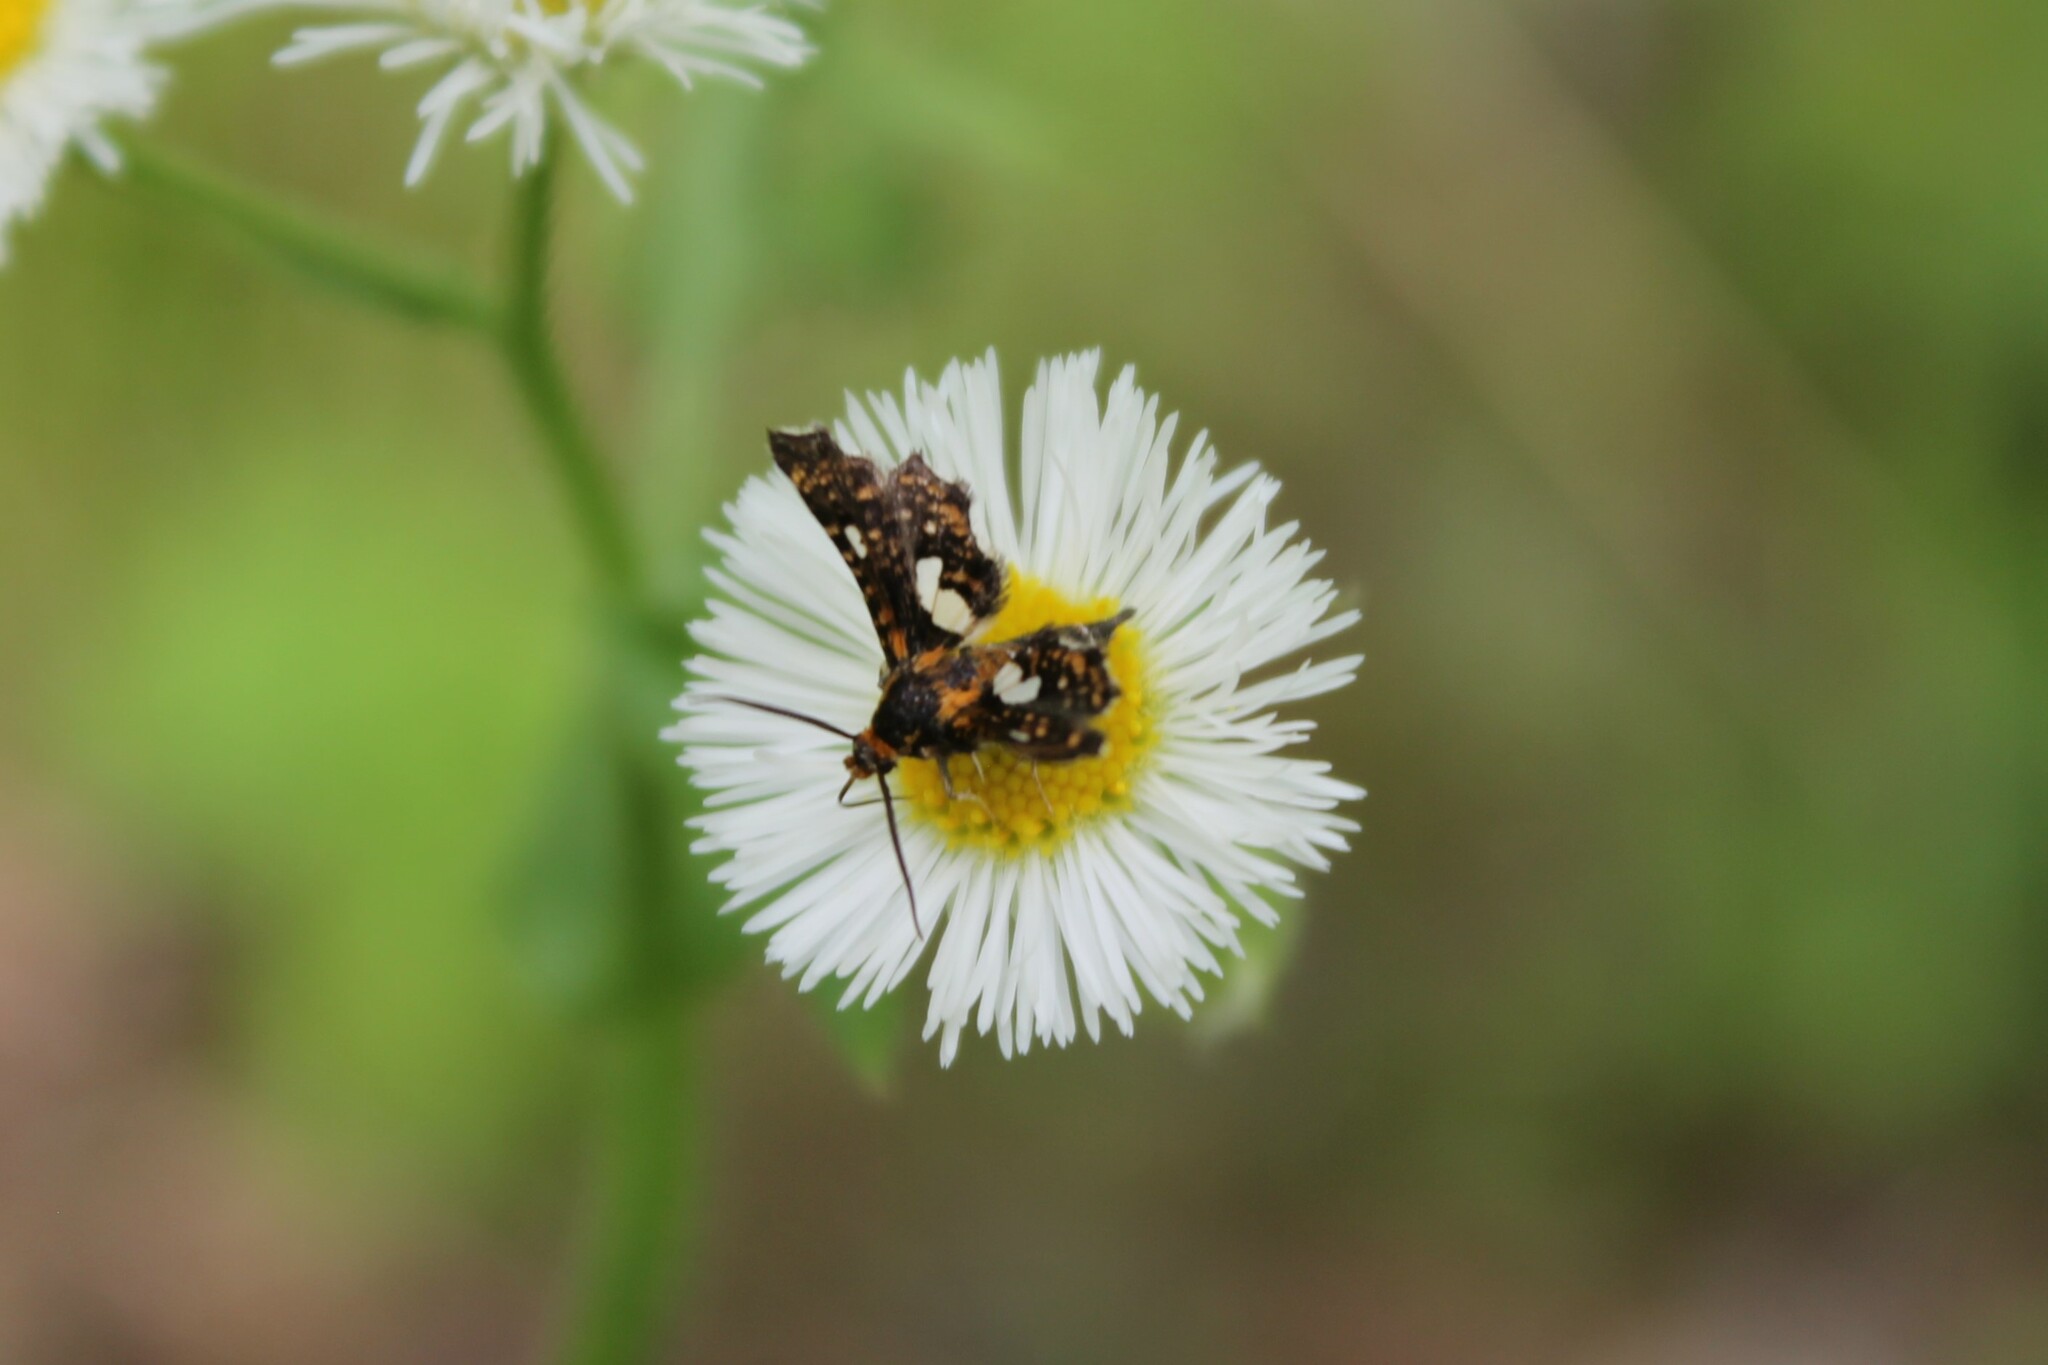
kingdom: Animalia
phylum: Arthropoda
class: Insecta
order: Lepidoptera
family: Thyrididae
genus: Thyris
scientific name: Thyris maculata
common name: Spotted thyris moth
